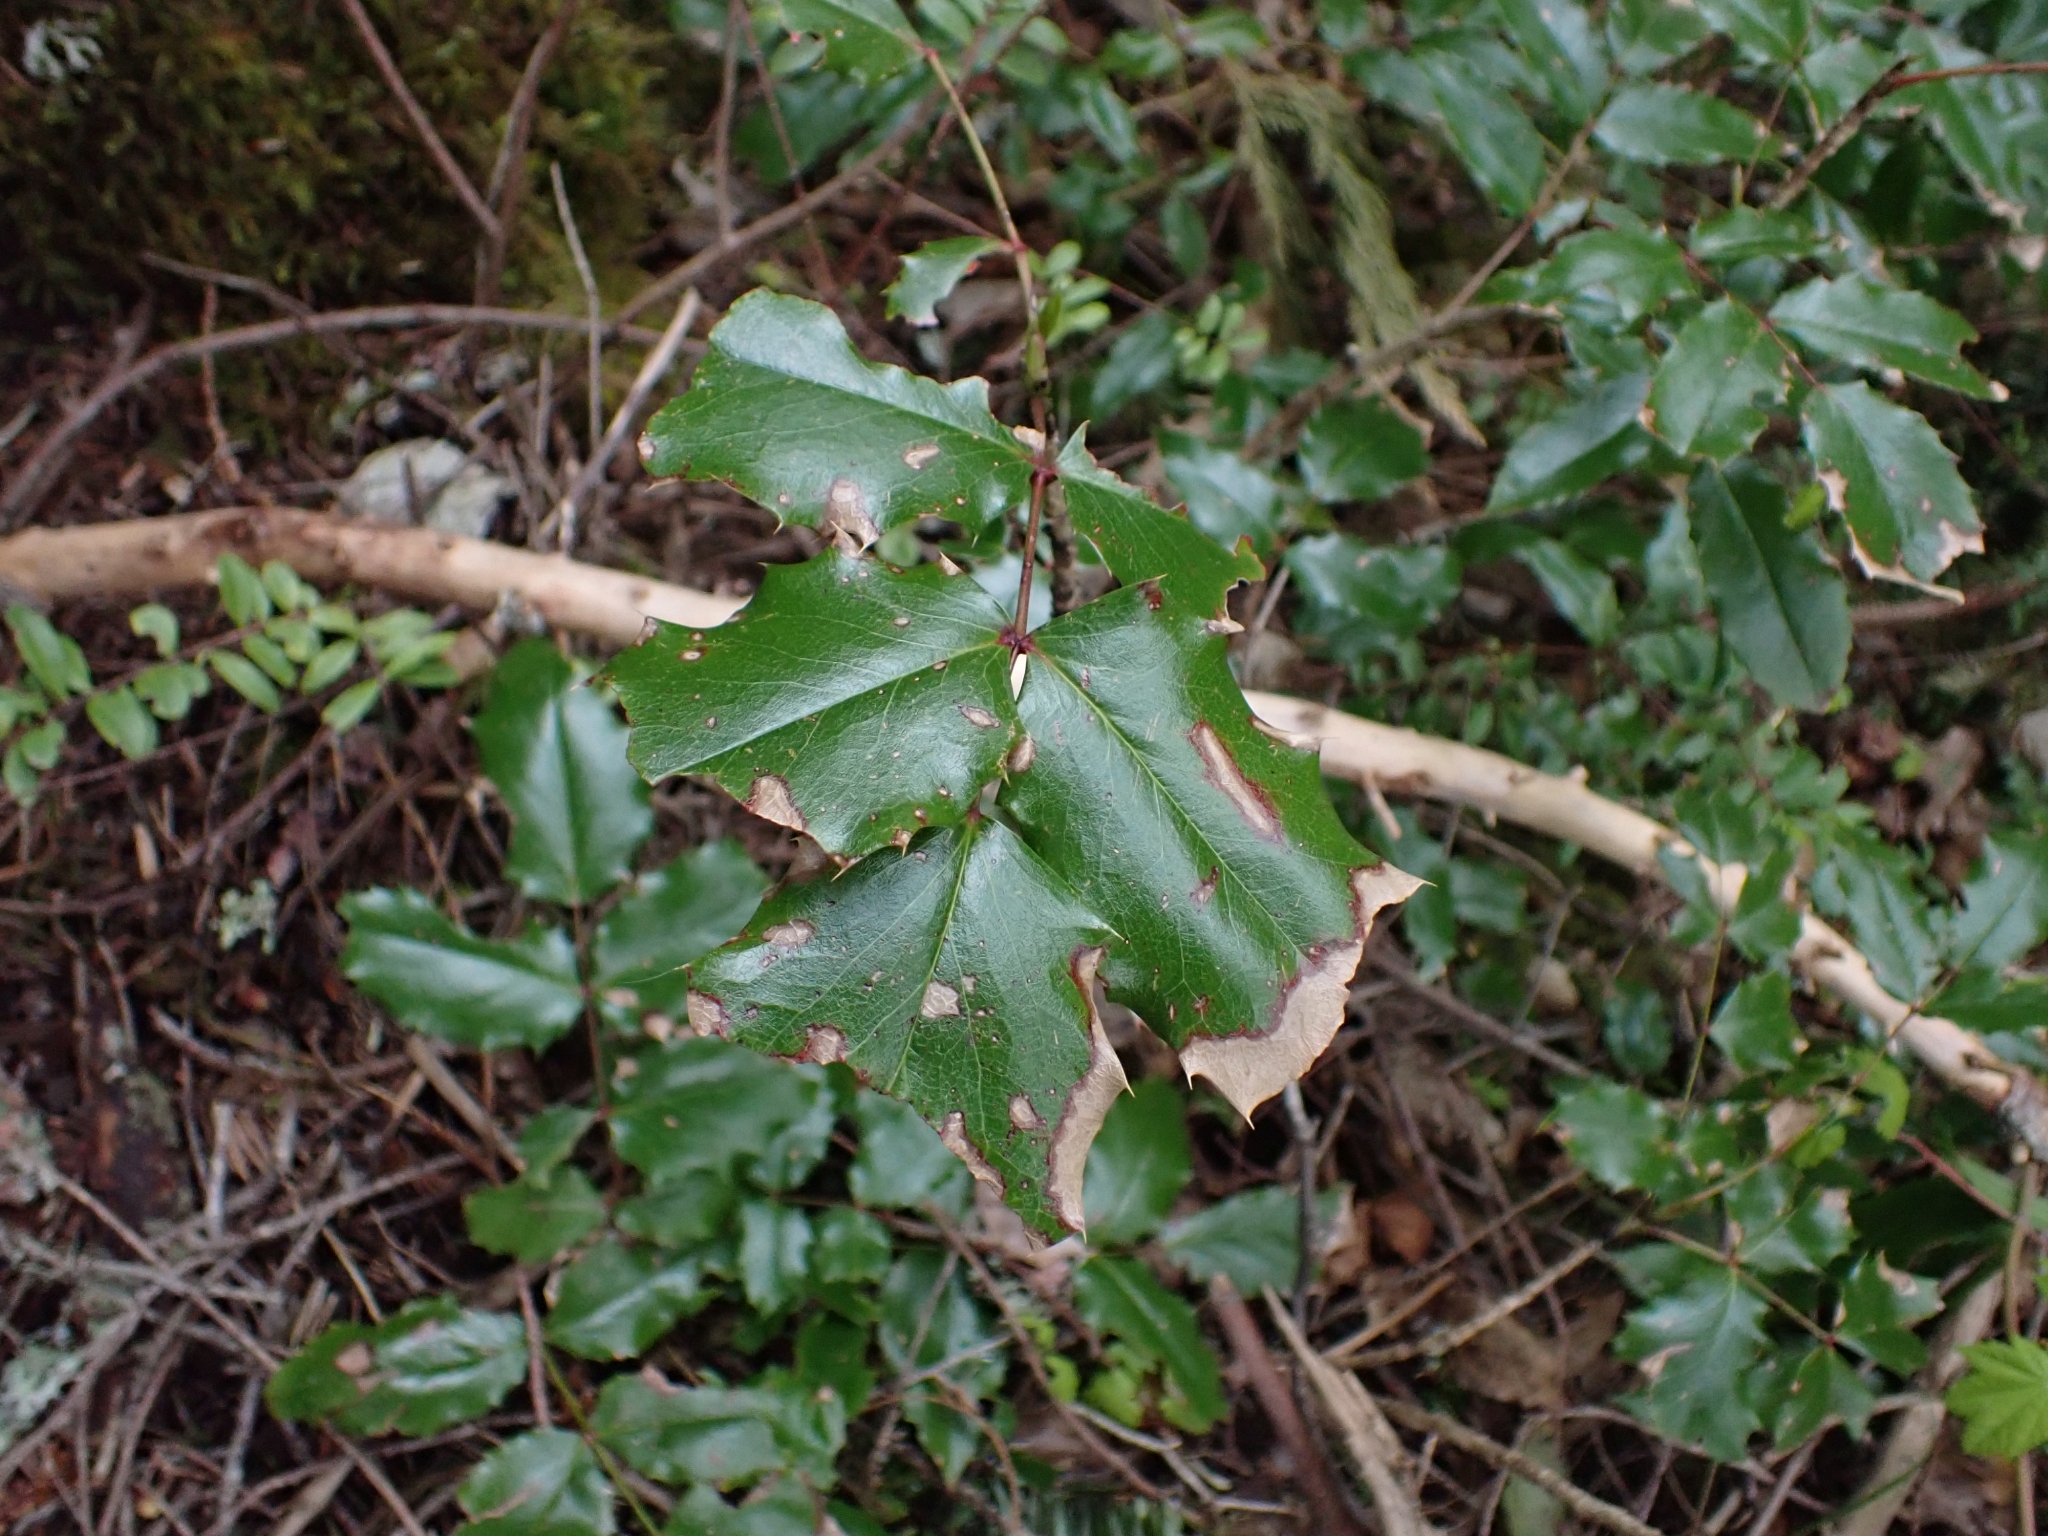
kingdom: Plantae
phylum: Tracheophyta
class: Magnoliopsida
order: Ranunculales
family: Berberidaceae
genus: Mahonia
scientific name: Mahonia aquifolium
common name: Oregon-grape
